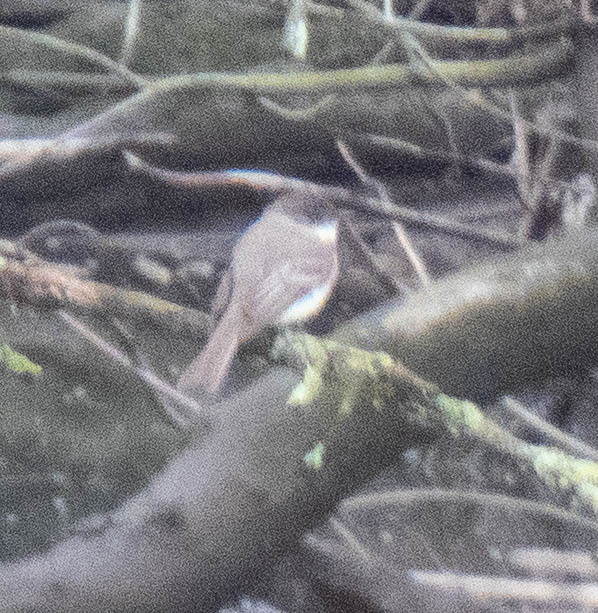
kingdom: Animalia
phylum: Chordata
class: Aves
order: Passeriformes
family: Tyrannidae
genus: Sayornis
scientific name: Sayornis phoebe
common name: Eastern phoebe
